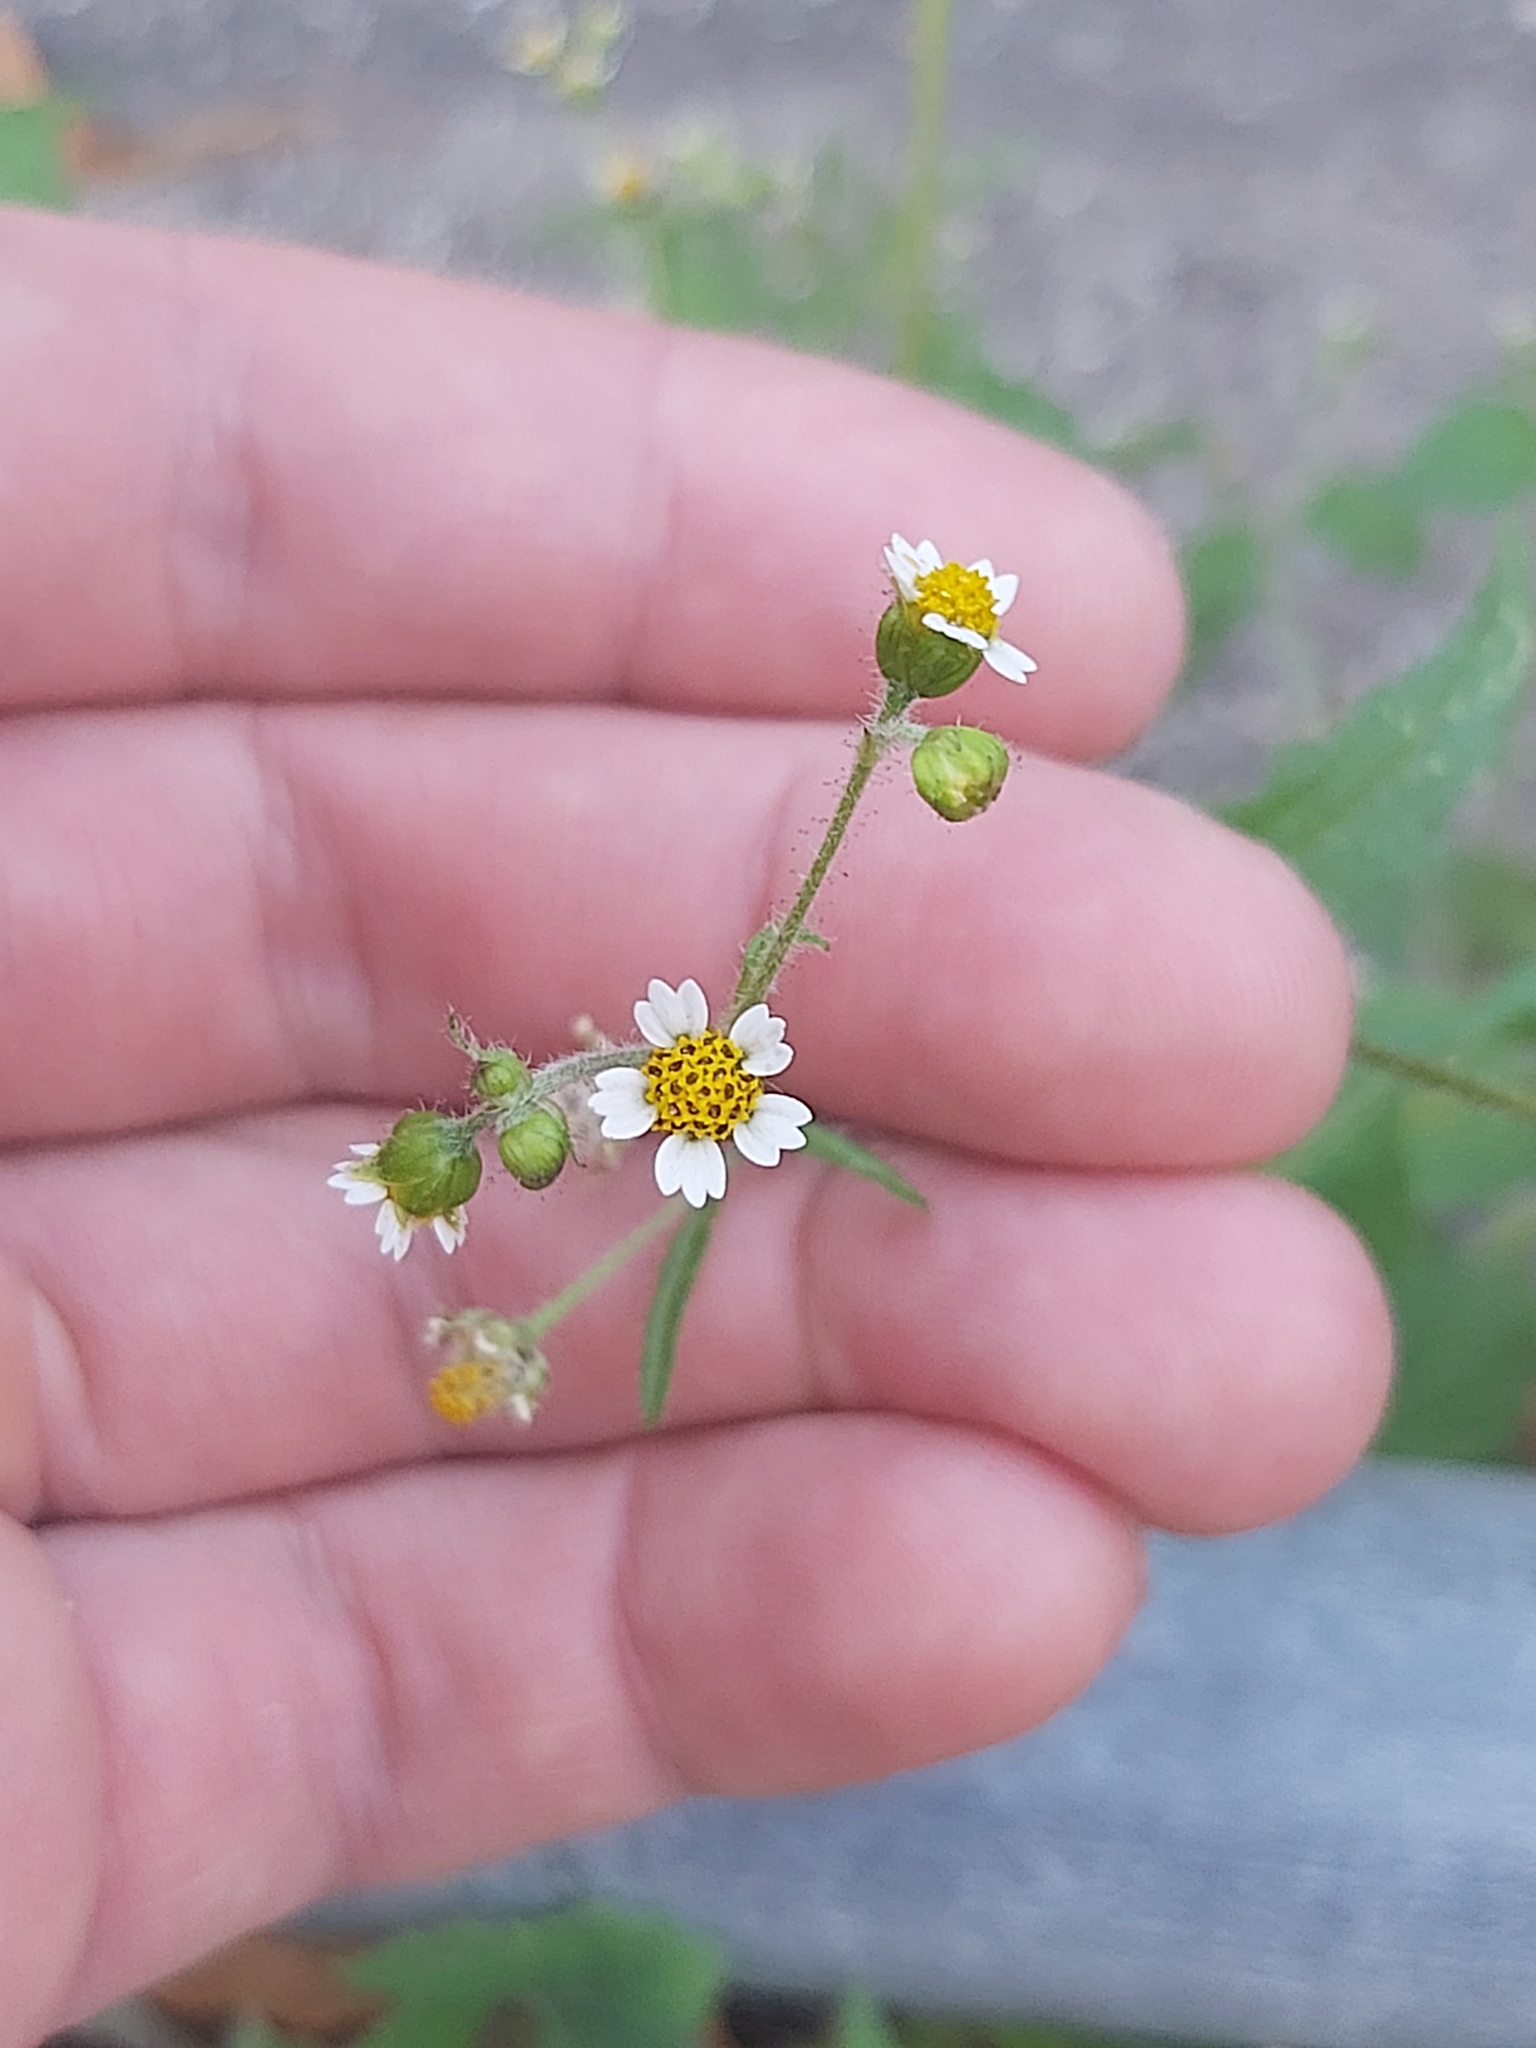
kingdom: Plantae
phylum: Tracheophyta
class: Magnoliopsida
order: Asterales
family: Asteraceae
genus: Galinsoga
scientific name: Galinsoga quadriradiata
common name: Shaggy soldier
